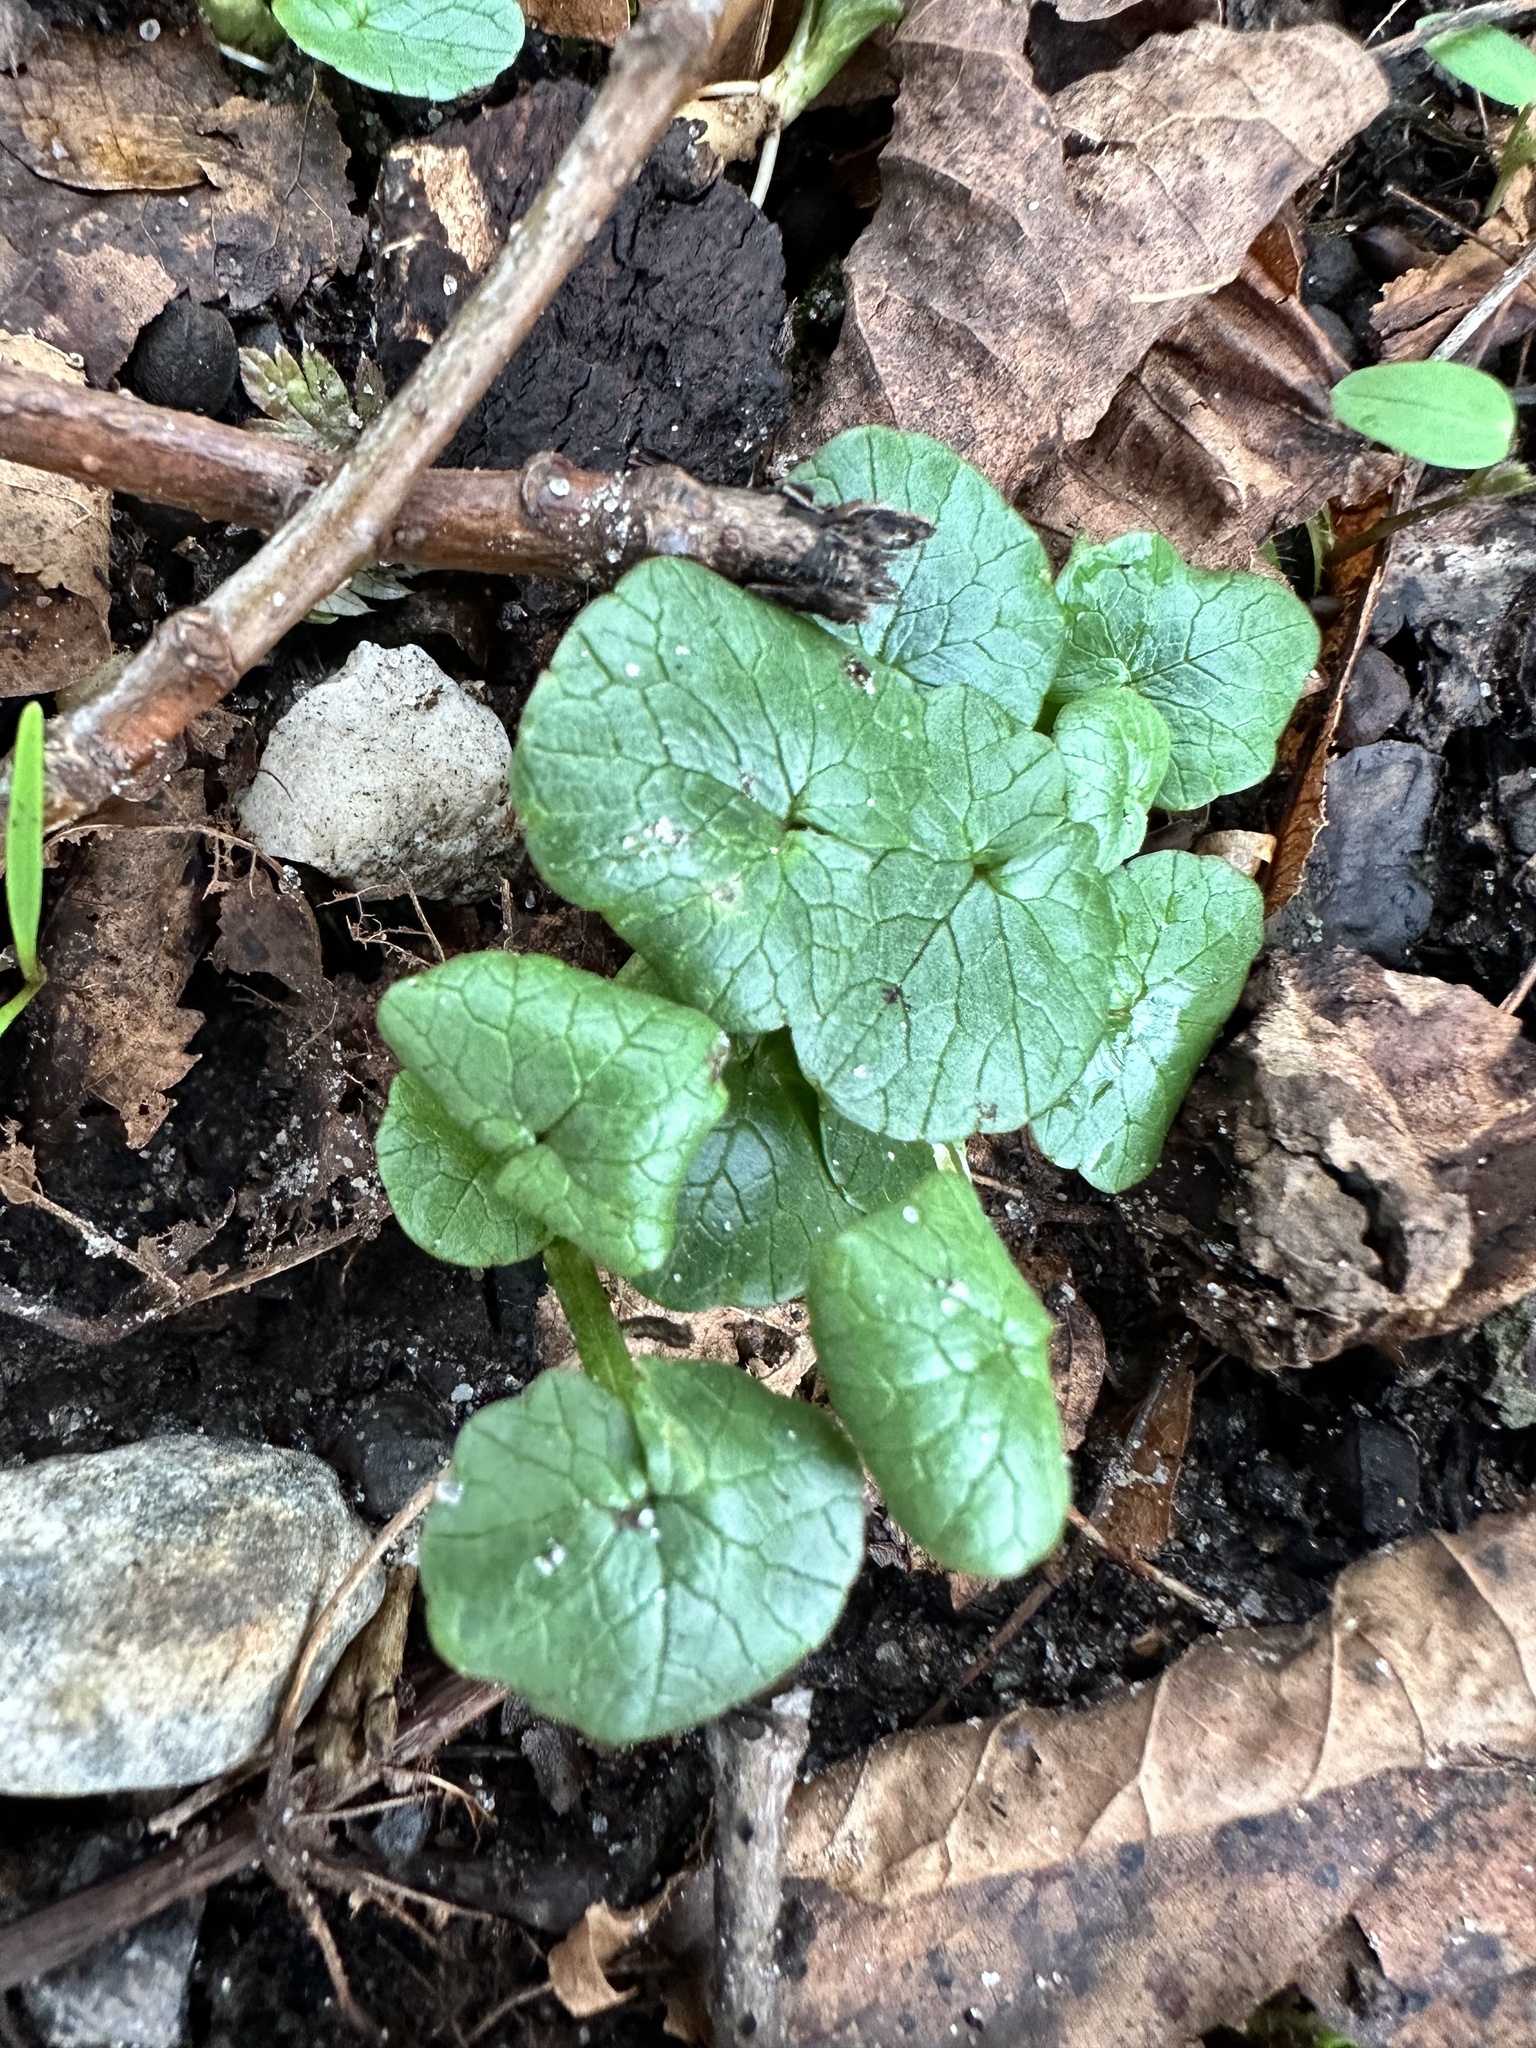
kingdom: Plantae
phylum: Tracheophyta
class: Magnoliopsida
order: Ranunculales
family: Ranunculaceae
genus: Ficaria
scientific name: Ficaria verna
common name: Lesser celandine
